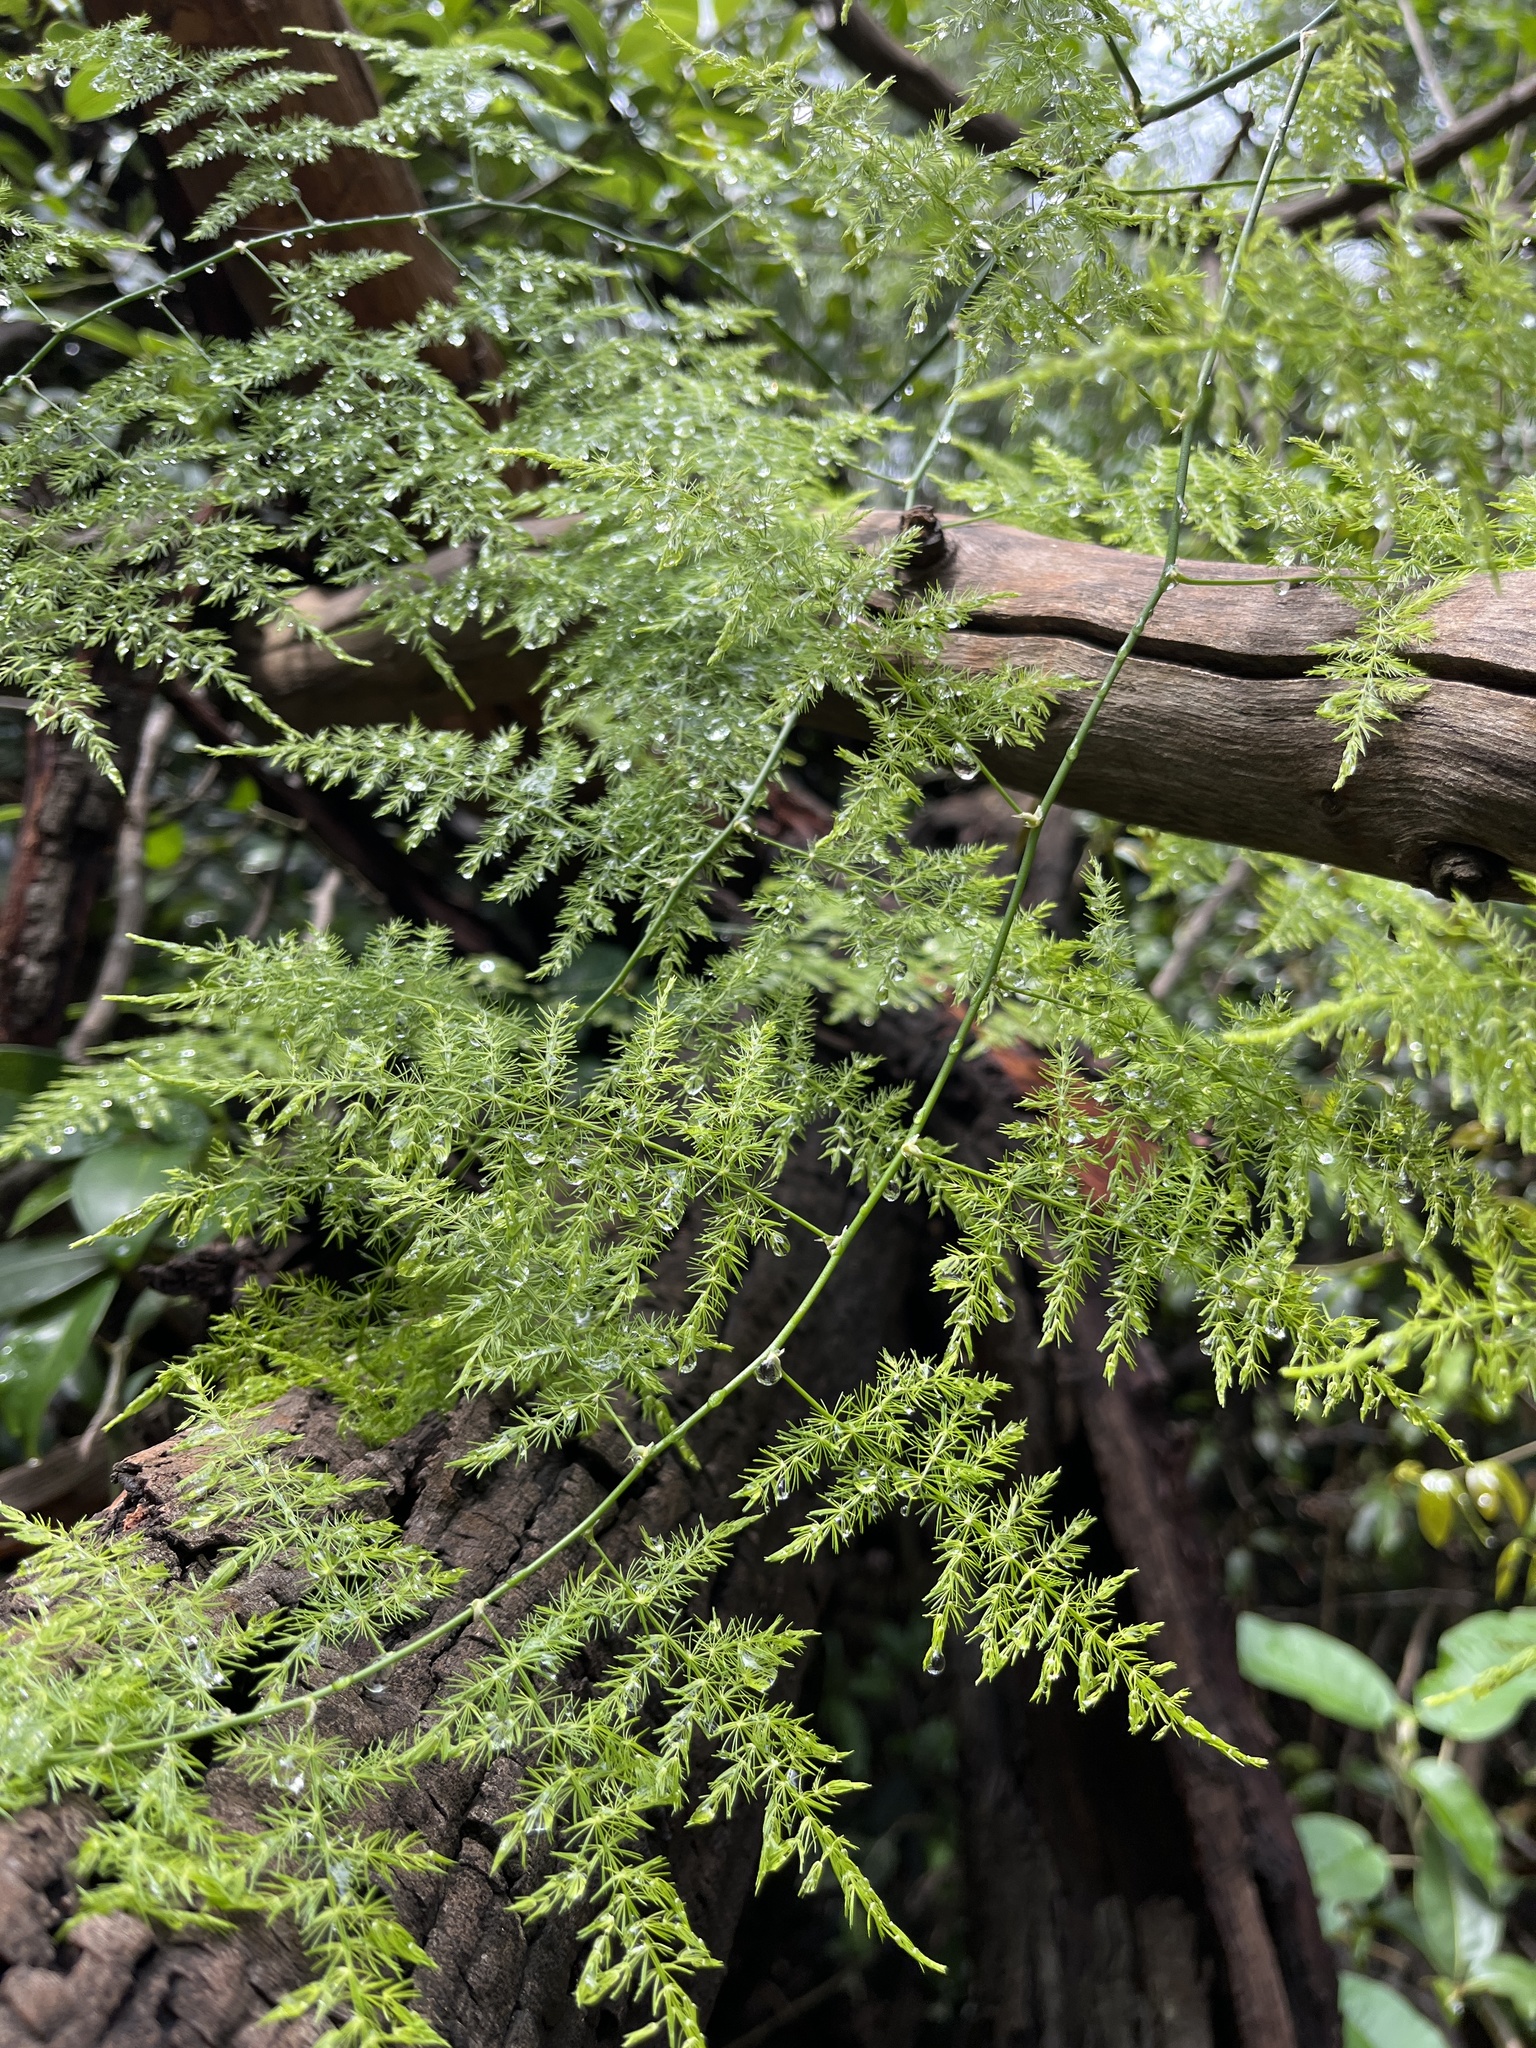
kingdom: Plantae
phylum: Tracheophyta
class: Liliopsida
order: Asparagales
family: Asparagaceae
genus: Asparagus
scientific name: Asparagus setaceus
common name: Common asparagus fern
